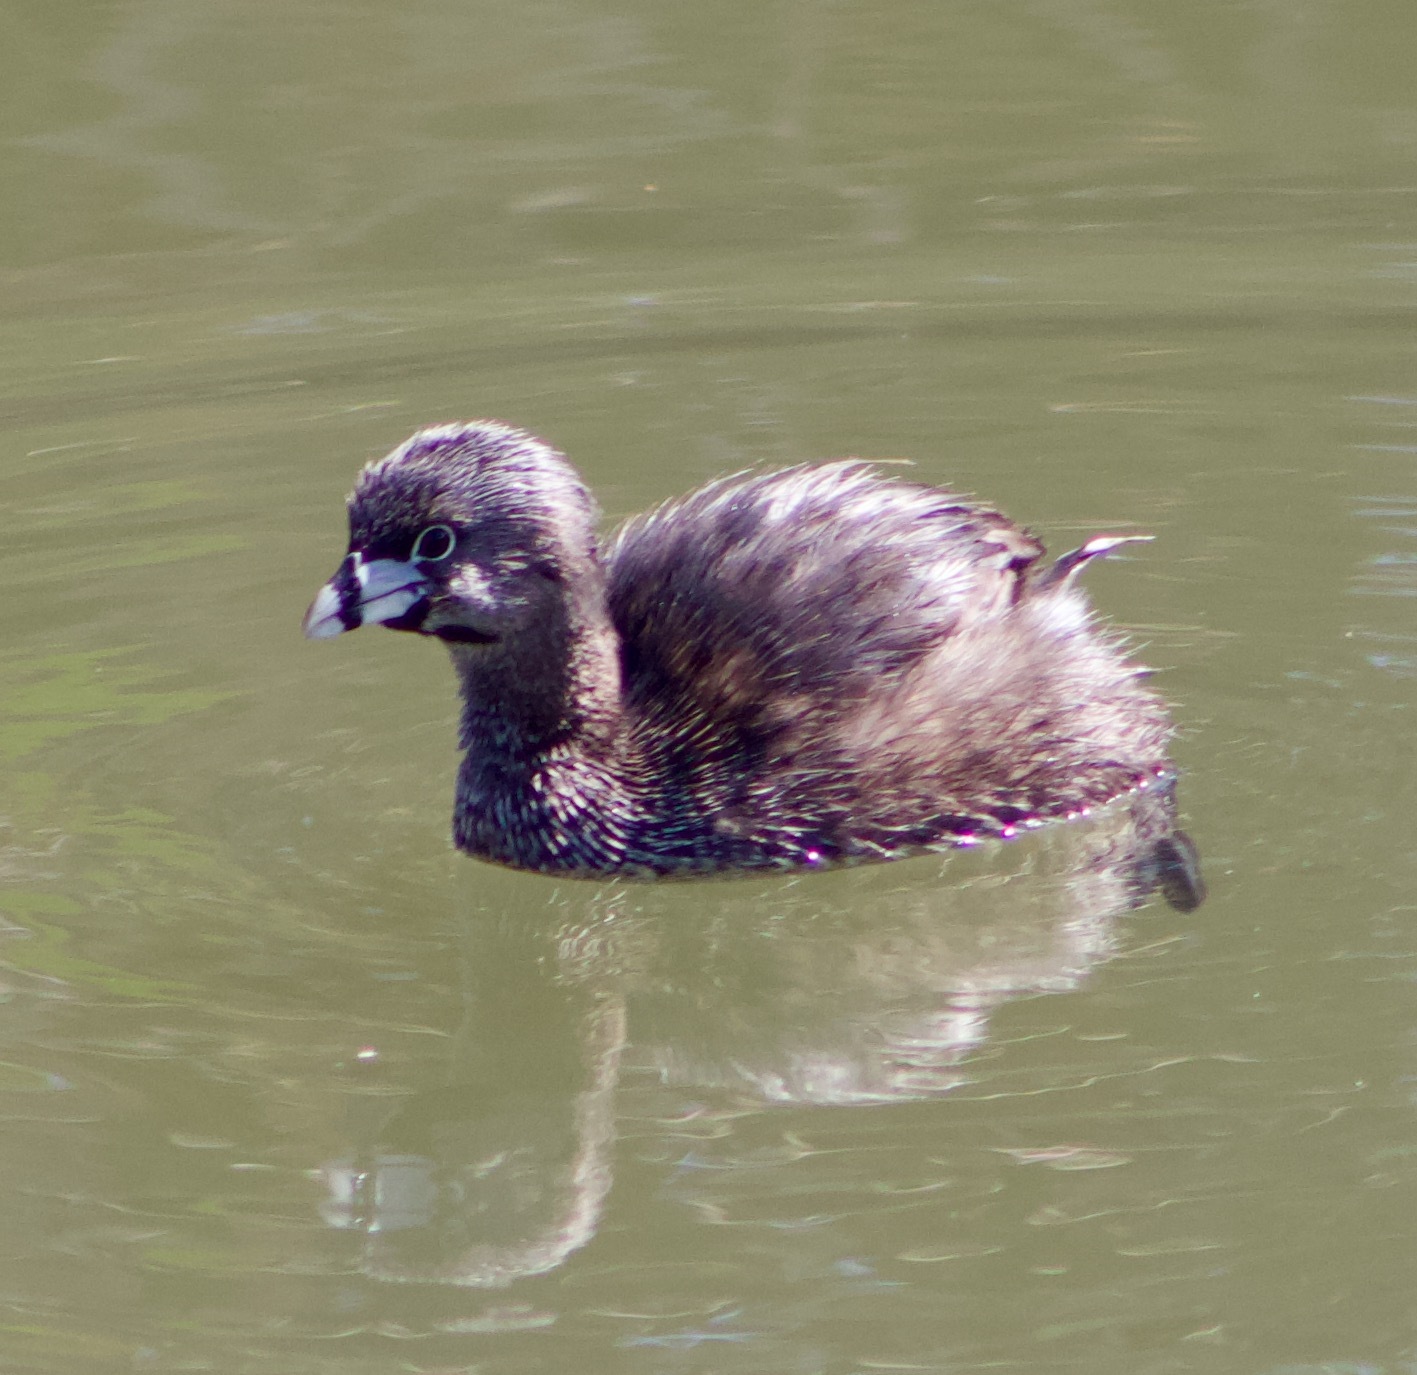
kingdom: Animalia
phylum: Chordata
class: Aves
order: Podicipediformes
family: Podicipedidae
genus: Podilymbus
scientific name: Podilymbus podiceps
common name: Pied-billed grebe
